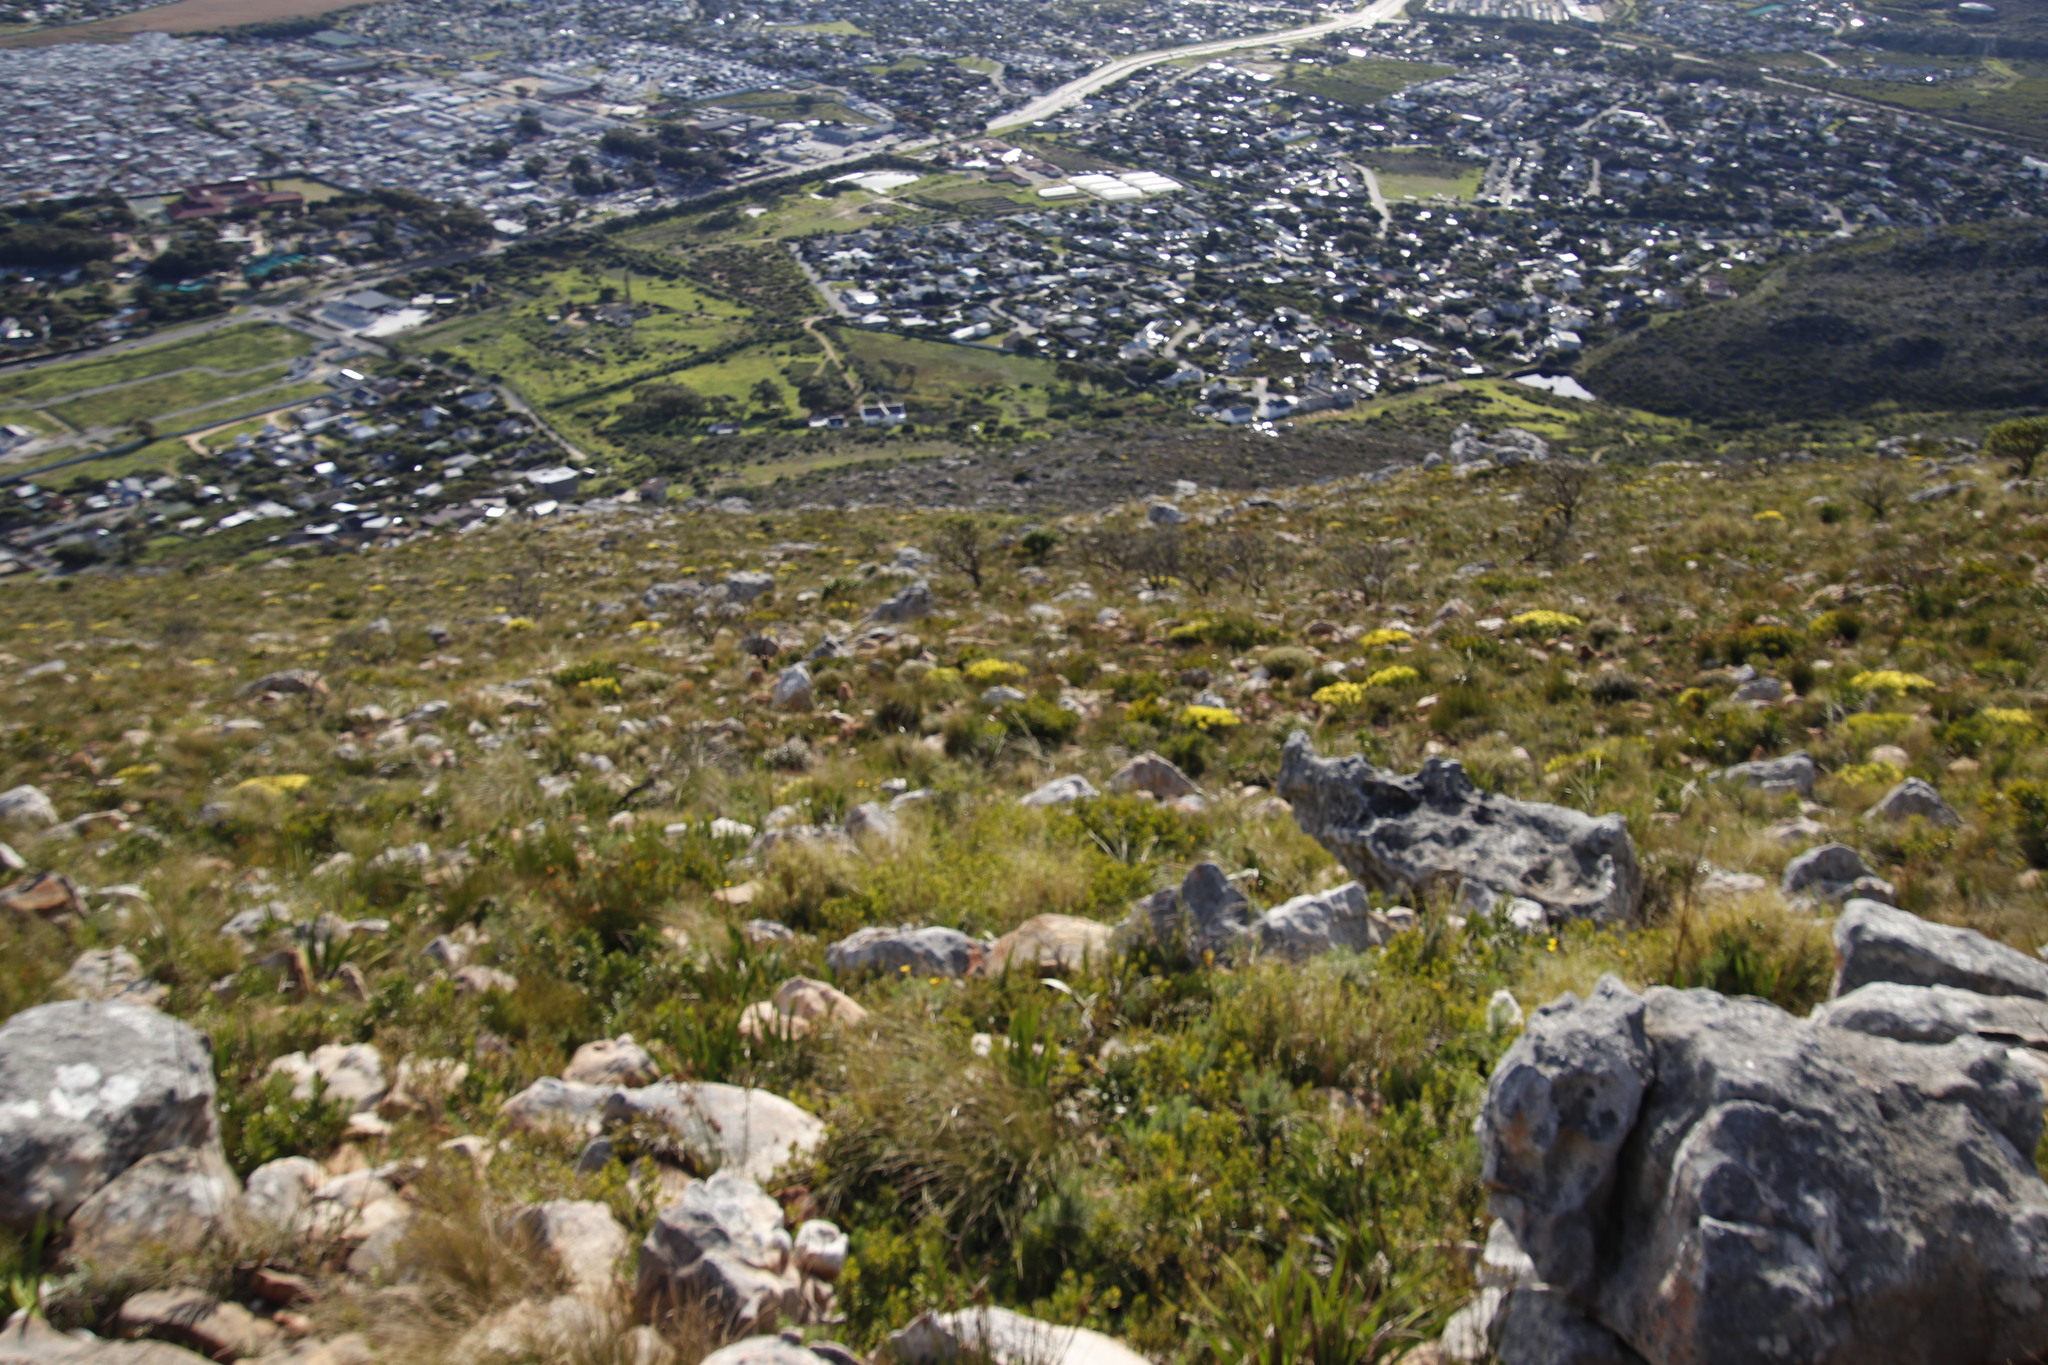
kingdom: Plantae
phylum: Tracheophyta
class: Magnoliopsida
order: Proteales
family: Proteaceae
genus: Leucadendron
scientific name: Leucadendron salignum
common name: Common sunshine conebush
